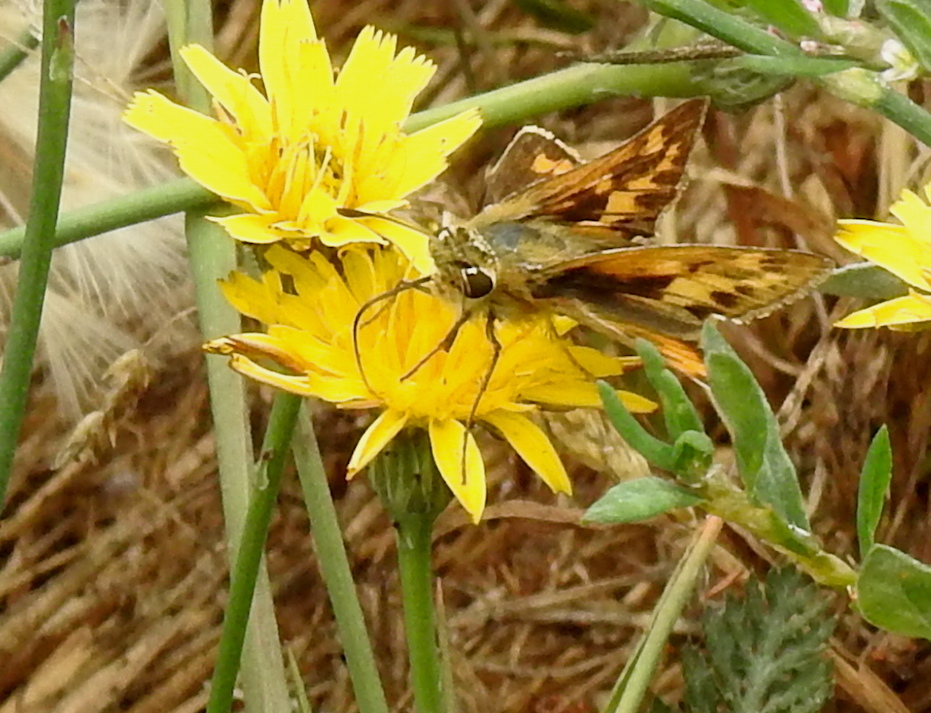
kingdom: Animalia
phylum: Arthropoda
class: Insecta
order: Lepidoptera
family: Hesperiidae
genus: Hylephila
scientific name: Hylephila phyleus
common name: Fiery skipper
